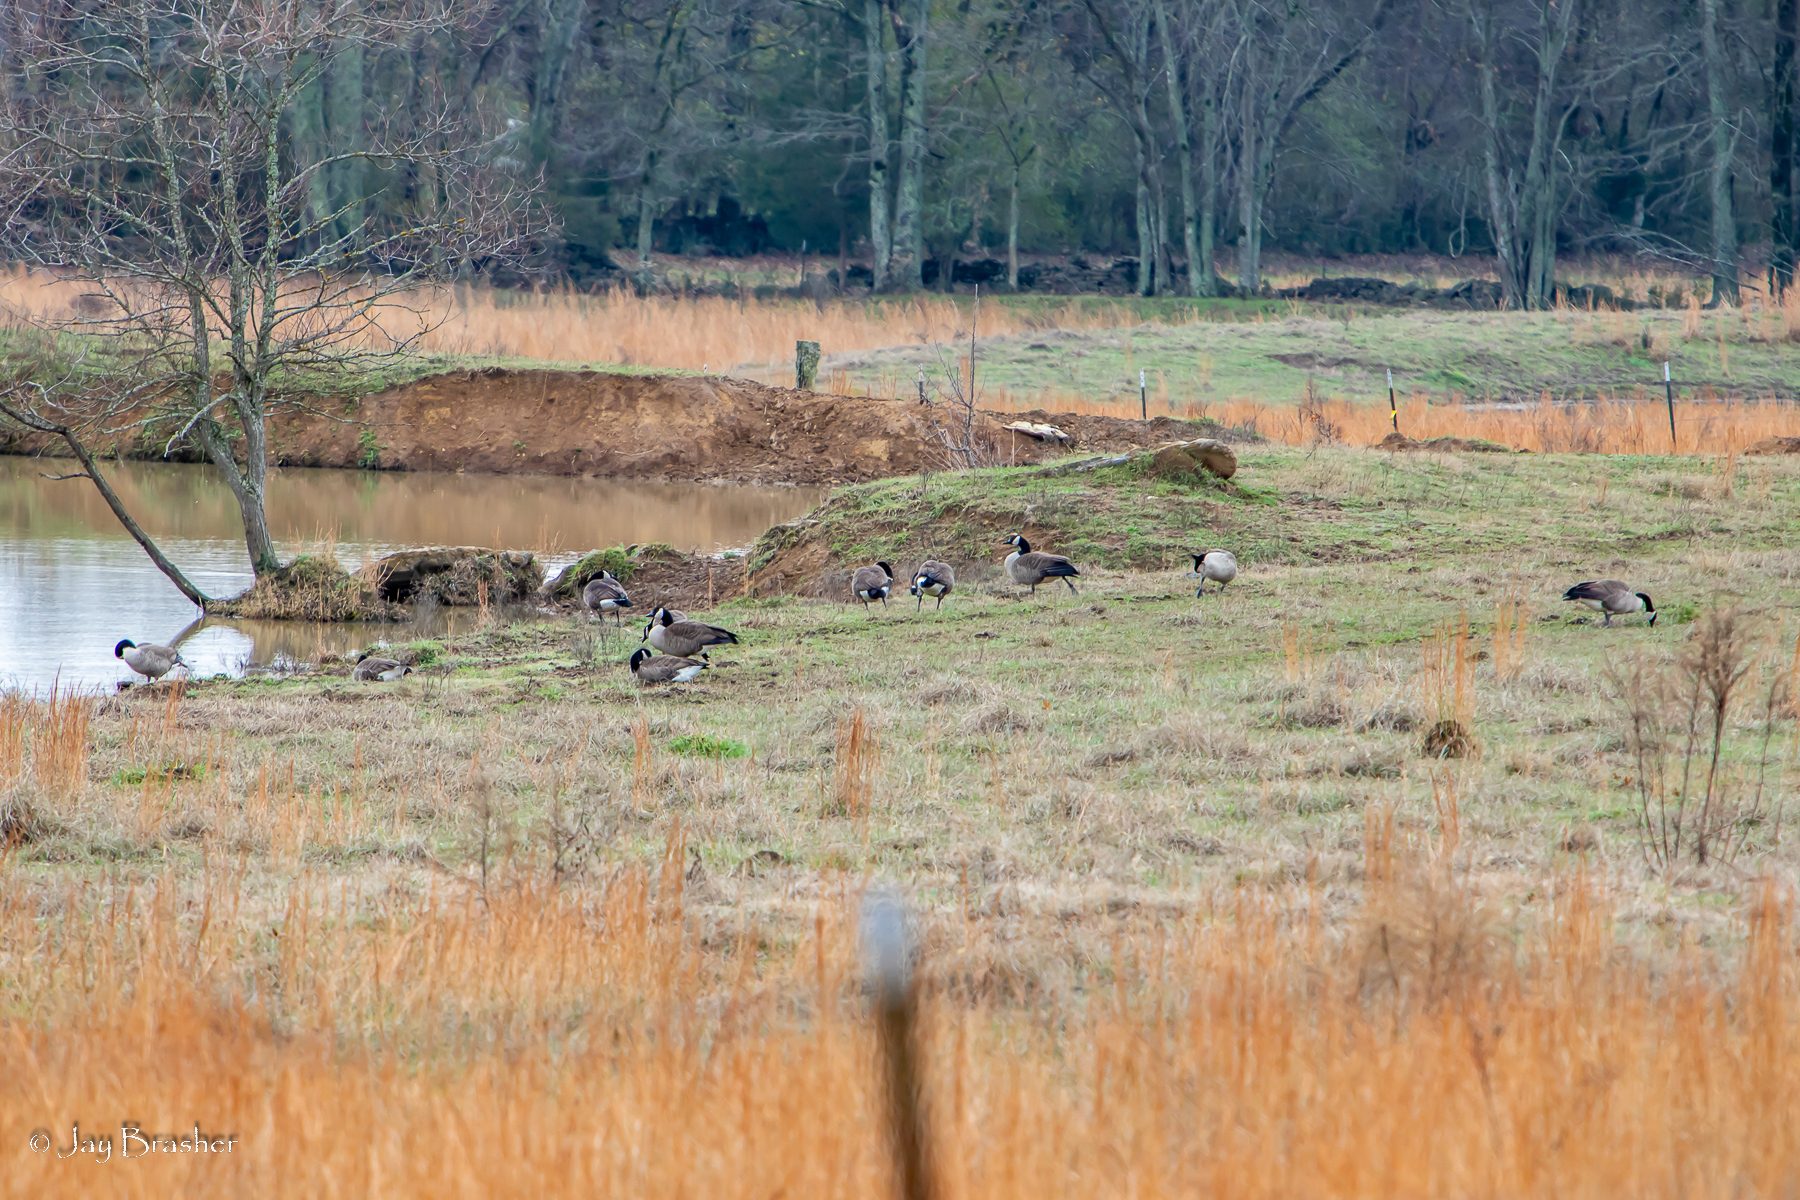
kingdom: Animalia
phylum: Chordata
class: Aves
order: Anseriformes
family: Anatidae
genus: Branta
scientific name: Branta canadensis
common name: Canada goose
